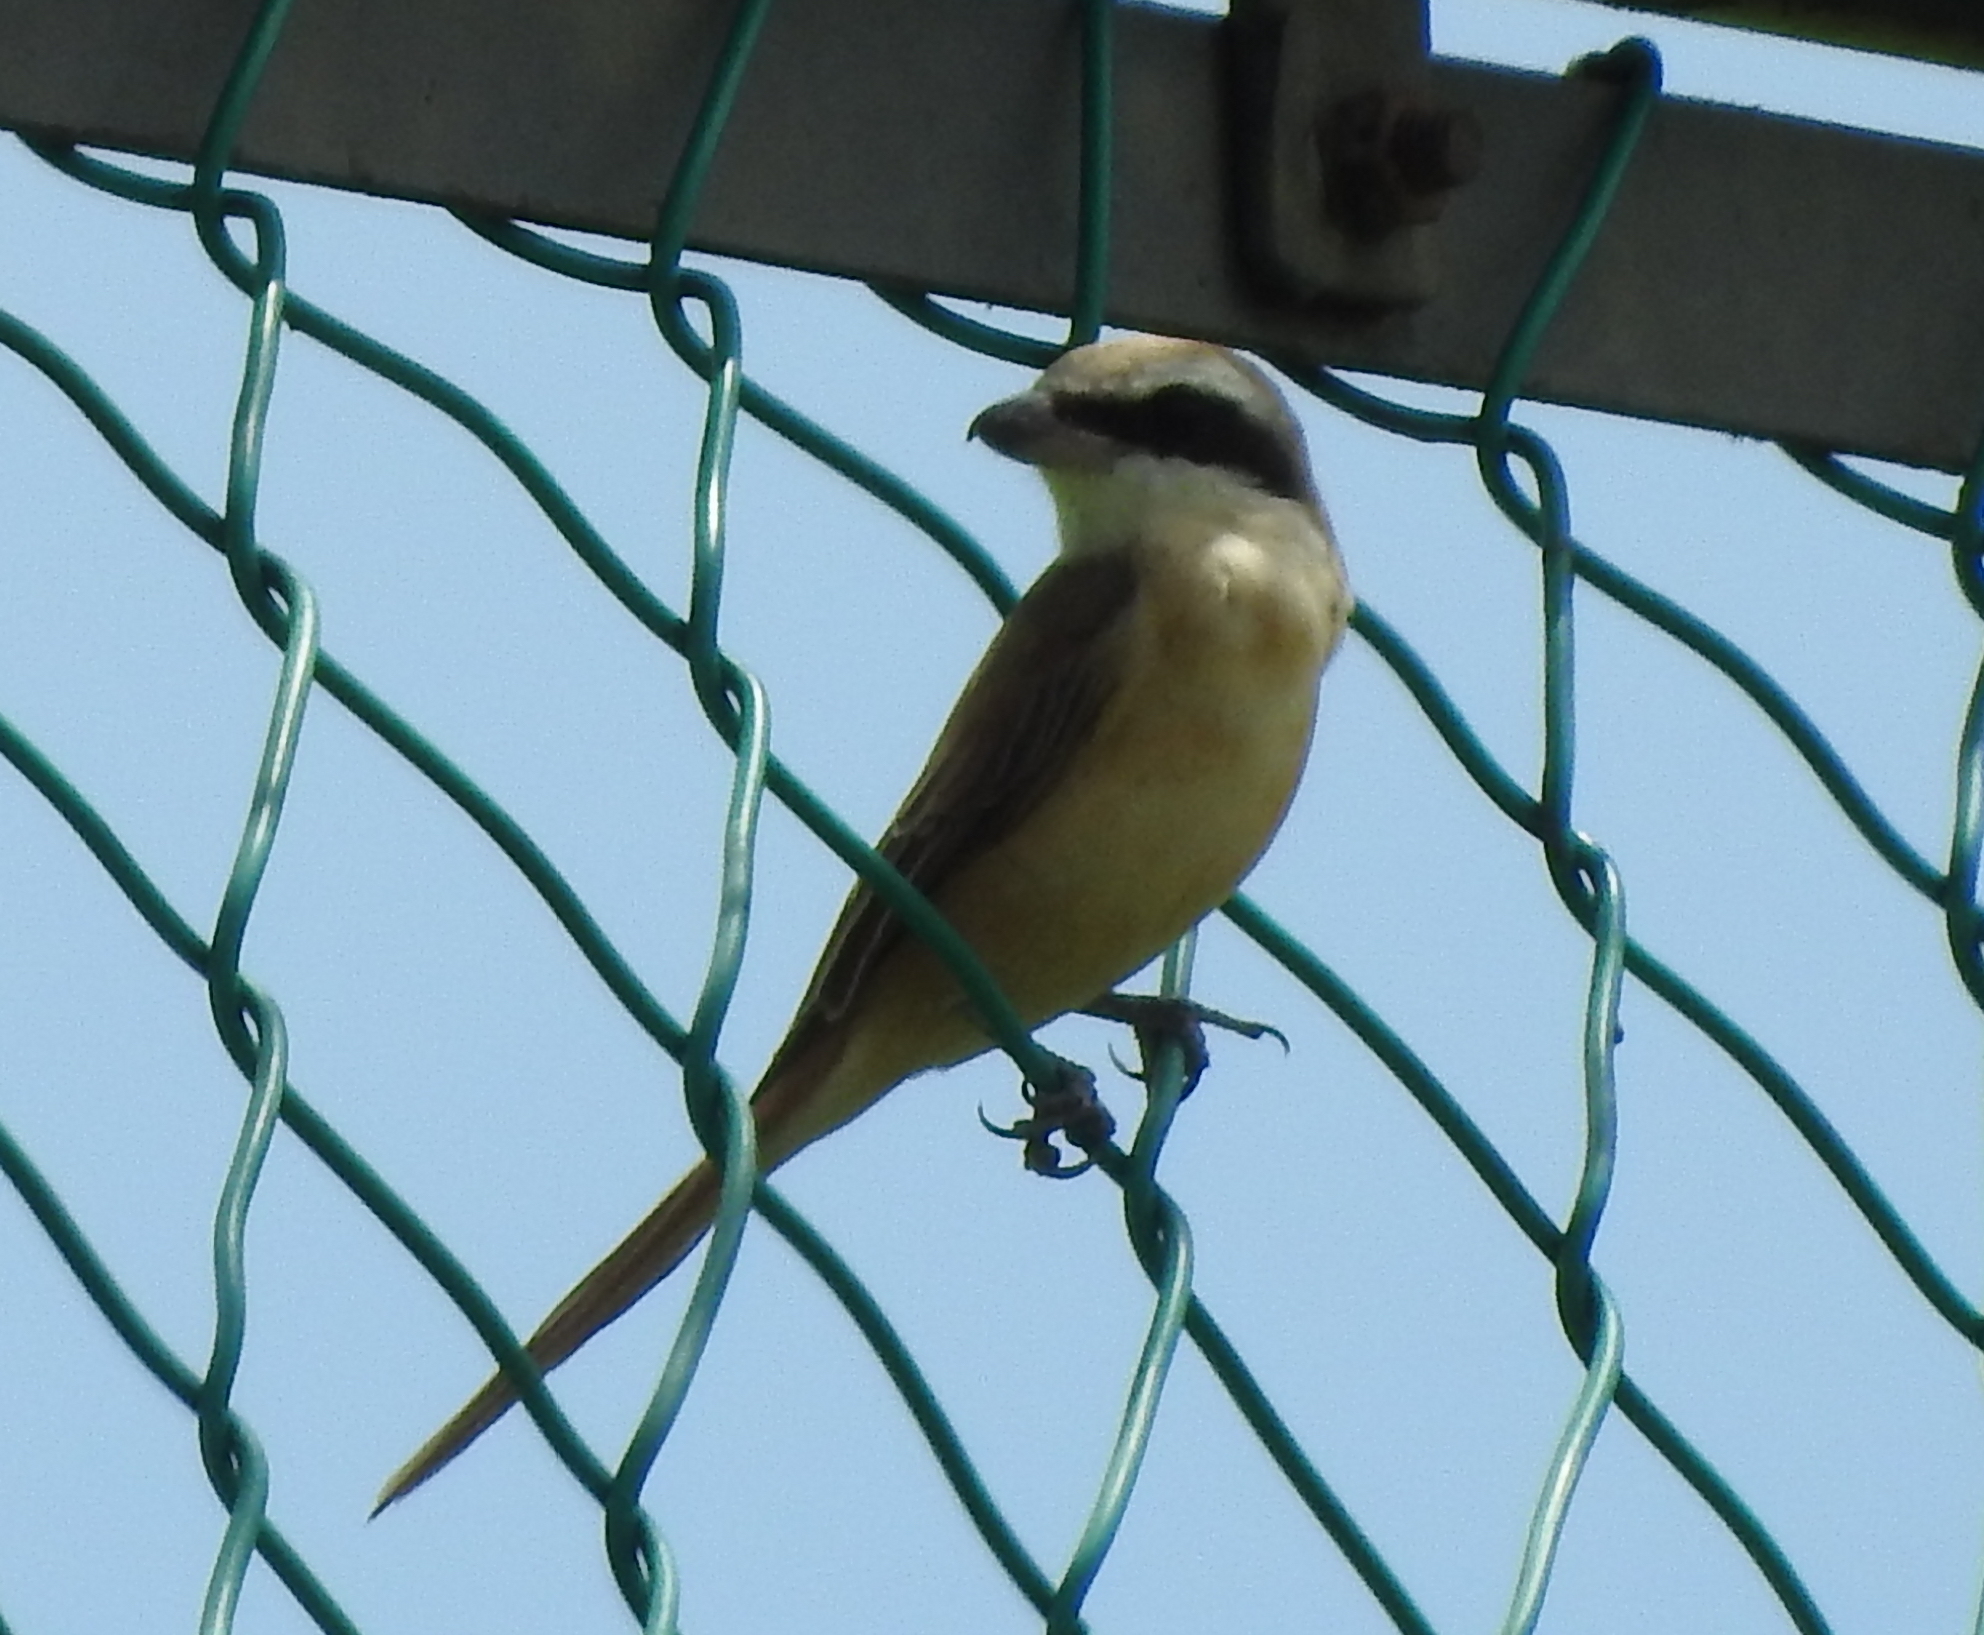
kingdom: Animalia
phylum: Chordata
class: Aves
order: Passeriformes
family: Laniidae
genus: Lanius
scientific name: Lanius cristatus
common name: Brown shrike
